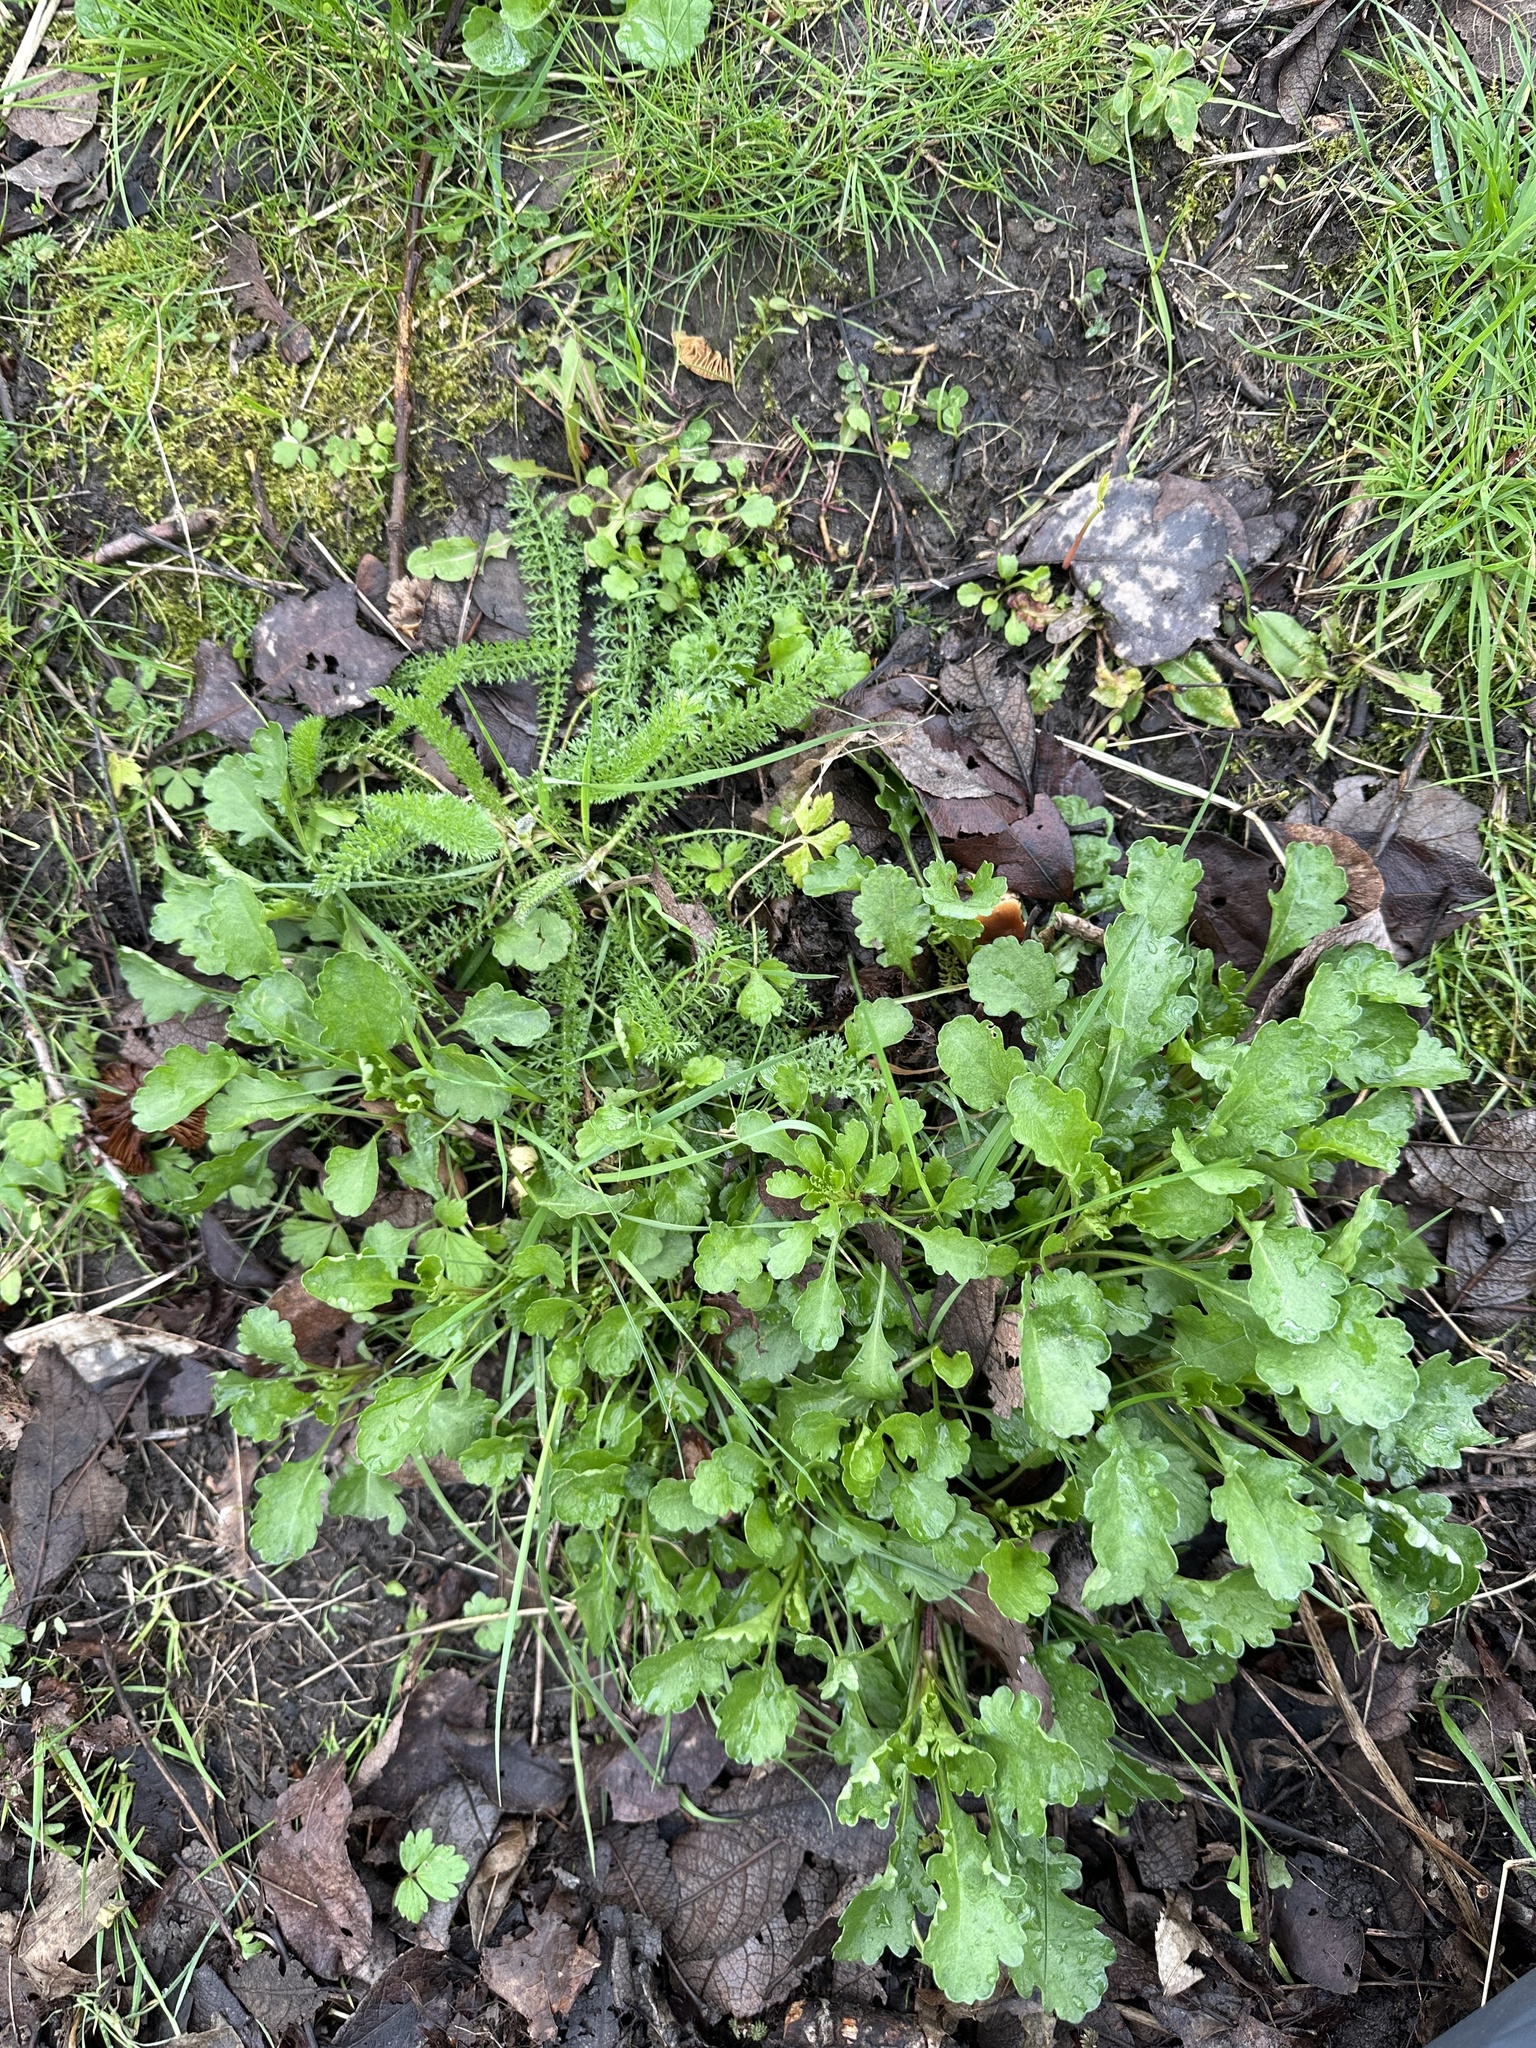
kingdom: Plantae
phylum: Tracheophyta
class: Magnoliopsida
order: Asterales
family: Asteraceae
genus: Leucanthemum
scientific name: Leucanthemum vulgare
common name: Oxeye daisy
